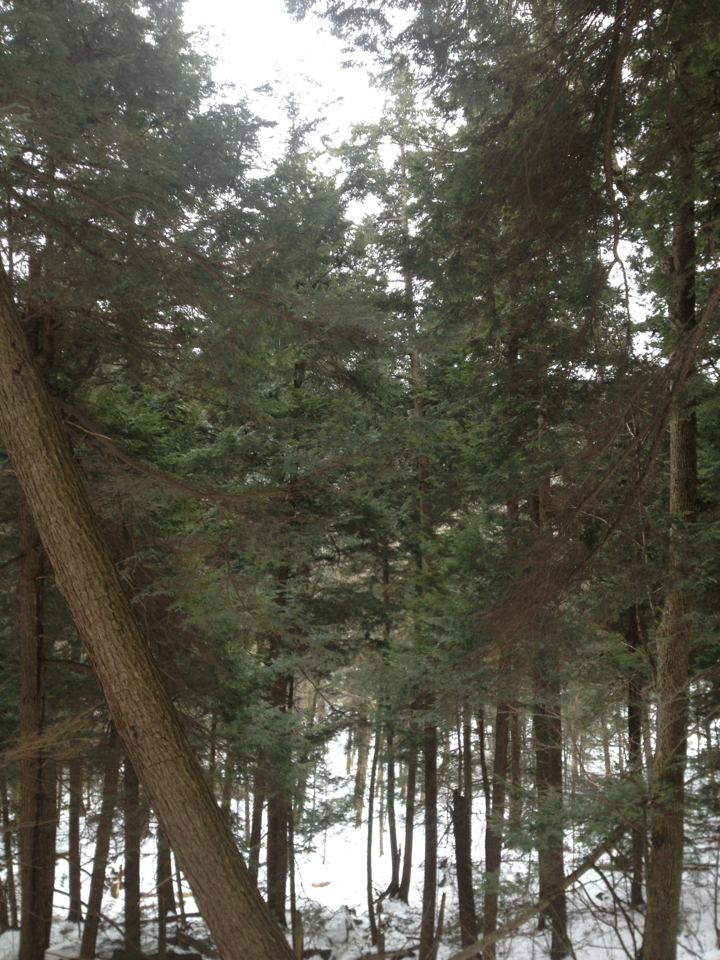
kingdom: Plantae
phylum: Tracheophyta
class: Pinopsida
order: Pinales
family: Pinaceae
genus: Tsuga
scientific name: Tsuga canadensis
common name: Eastern hemlock
